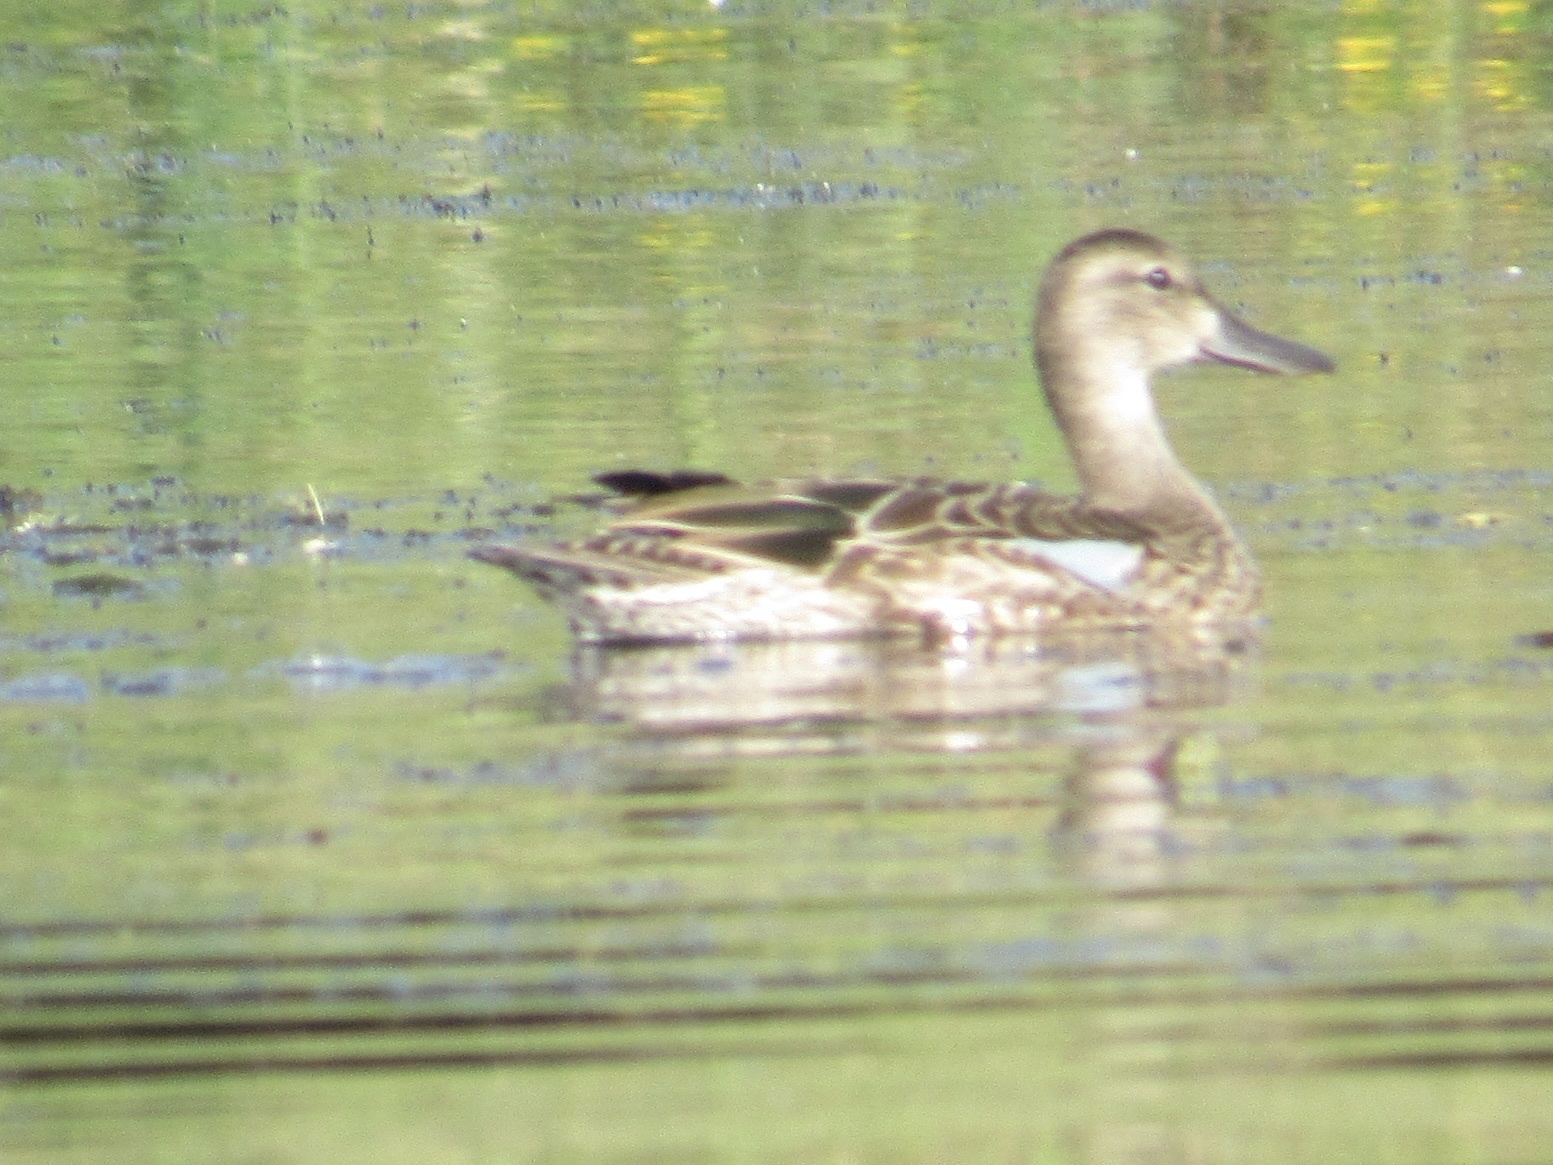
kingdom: Animalia
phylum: Chordata
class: Aves
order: Anseriformes
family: Anatidae
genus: Spatula
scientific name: Spatula discors
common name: Blue-winged teal
